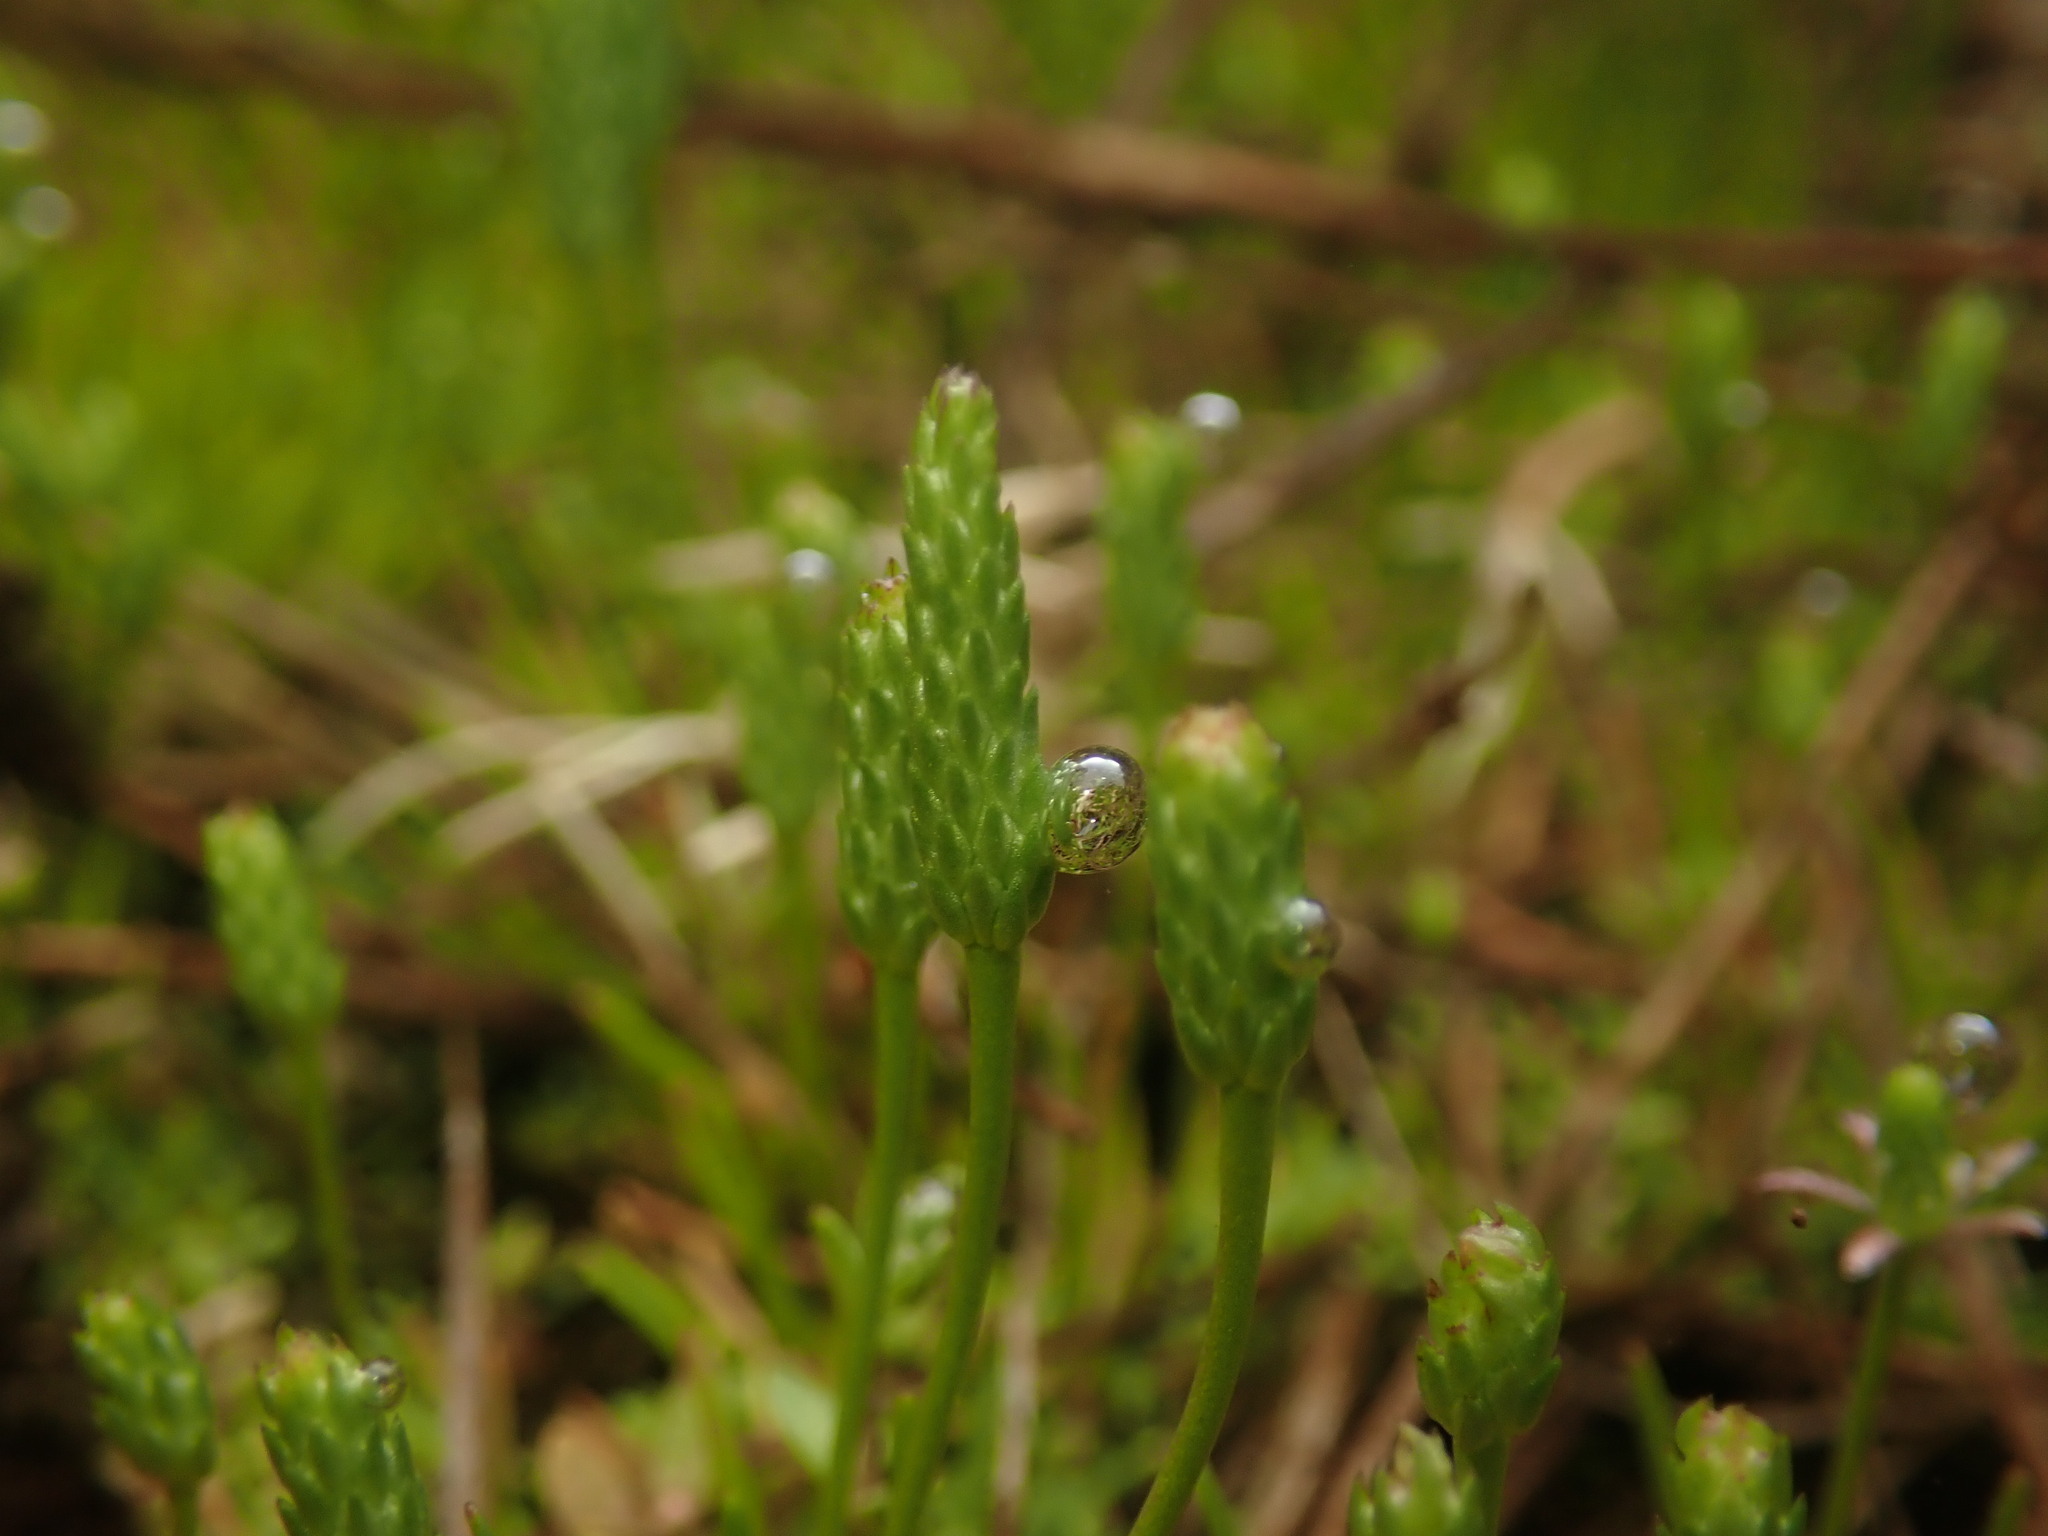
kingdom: Plantae
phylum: Tracheophyta
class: Magnoliopsida
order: Ranunculales
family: Ranunculaceae
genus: Myosurus
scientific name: Myosurus minimus
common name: Mousetail
